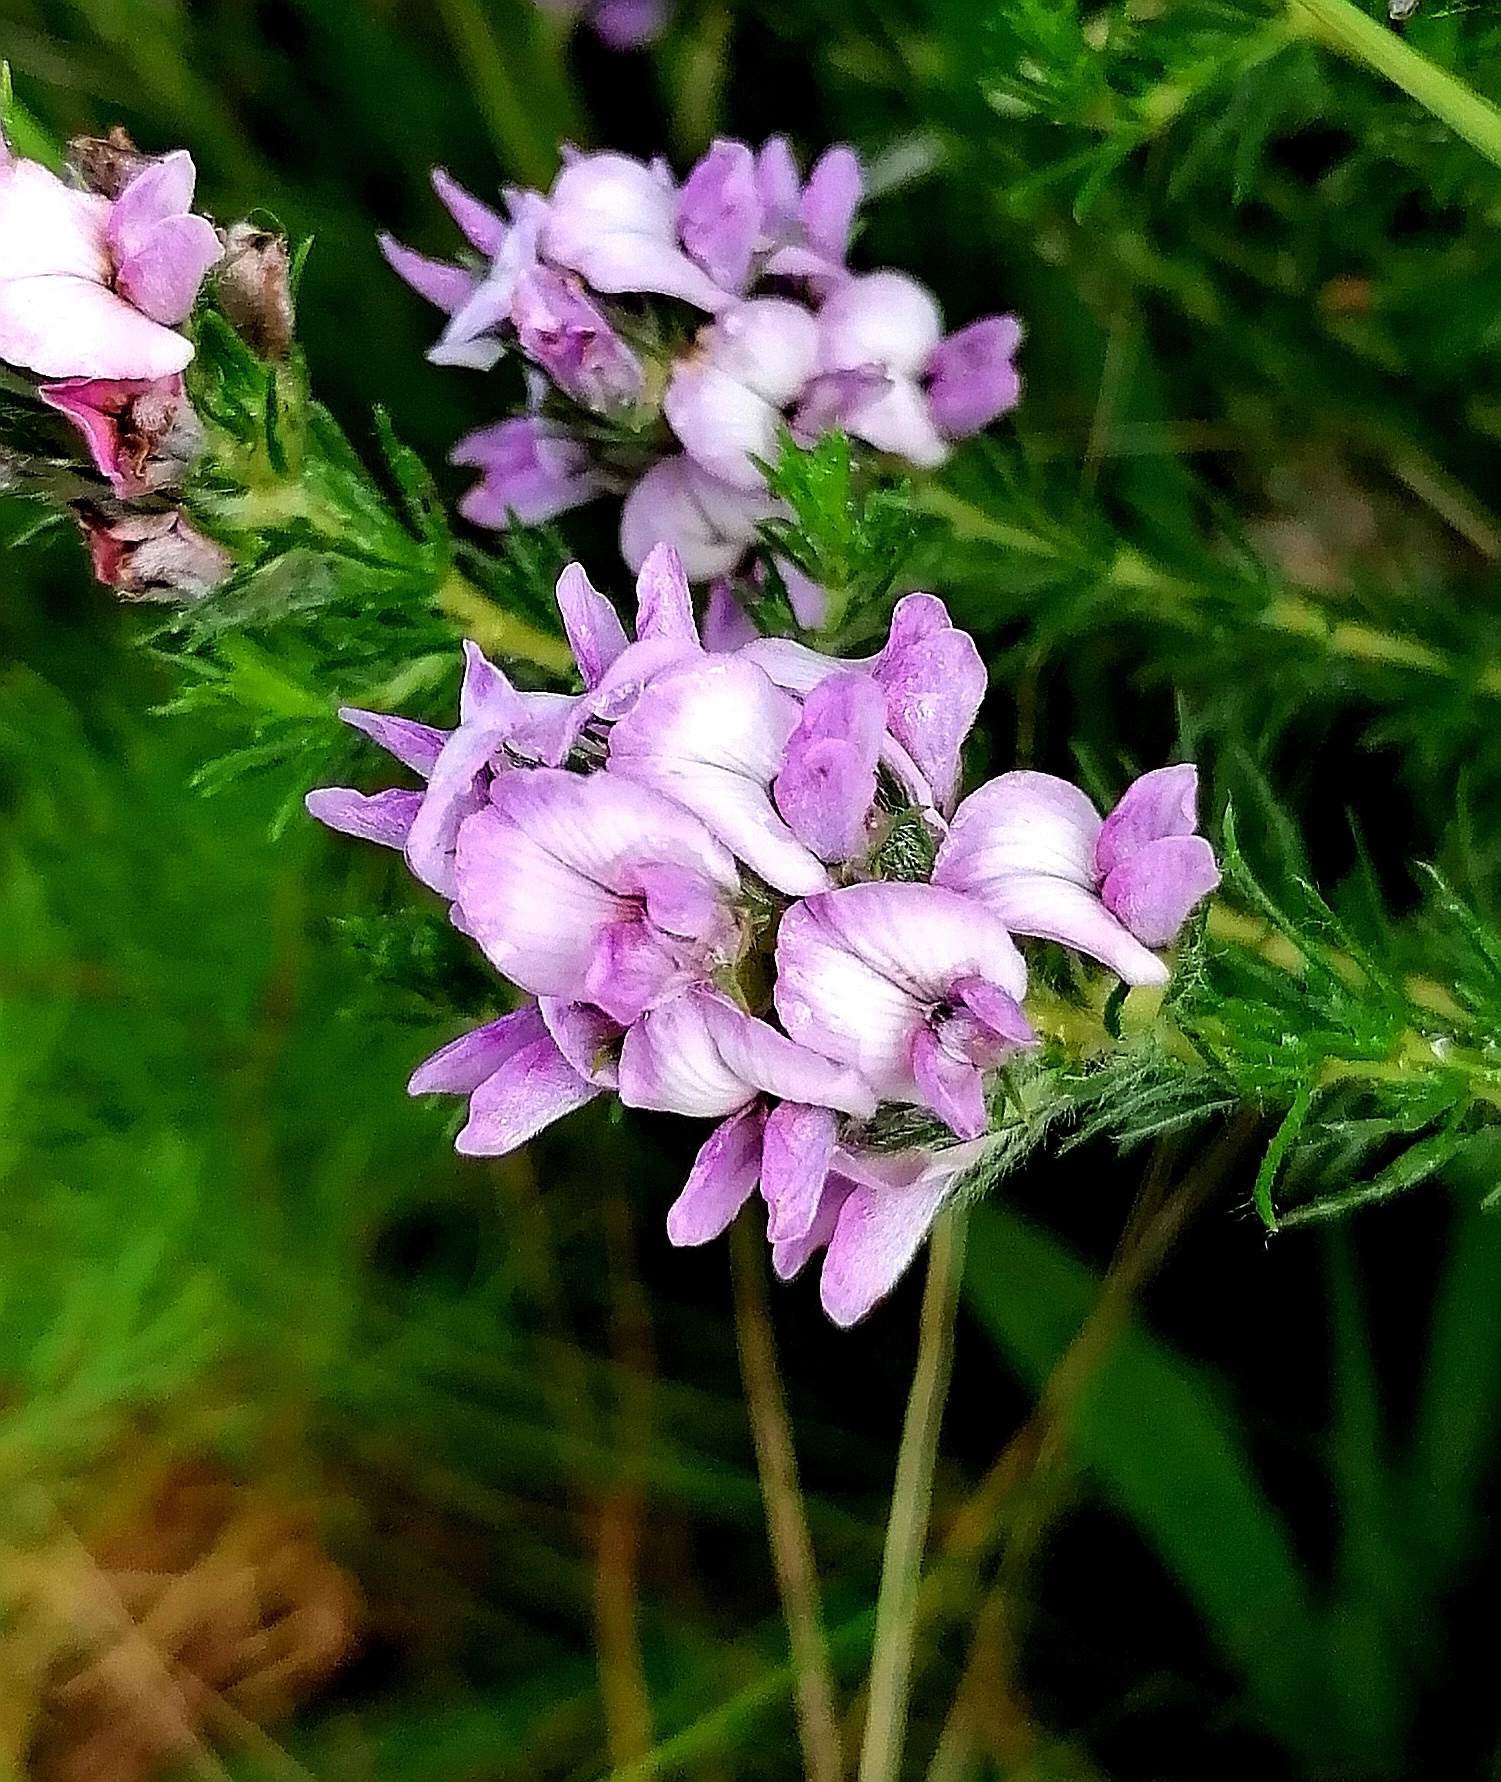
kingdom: Plantae
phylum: Tracheophyta
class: Magnoliopsida
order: Fabales
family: Fabaceae
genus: Aspalathus
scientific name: Aspalathus cephalotes
